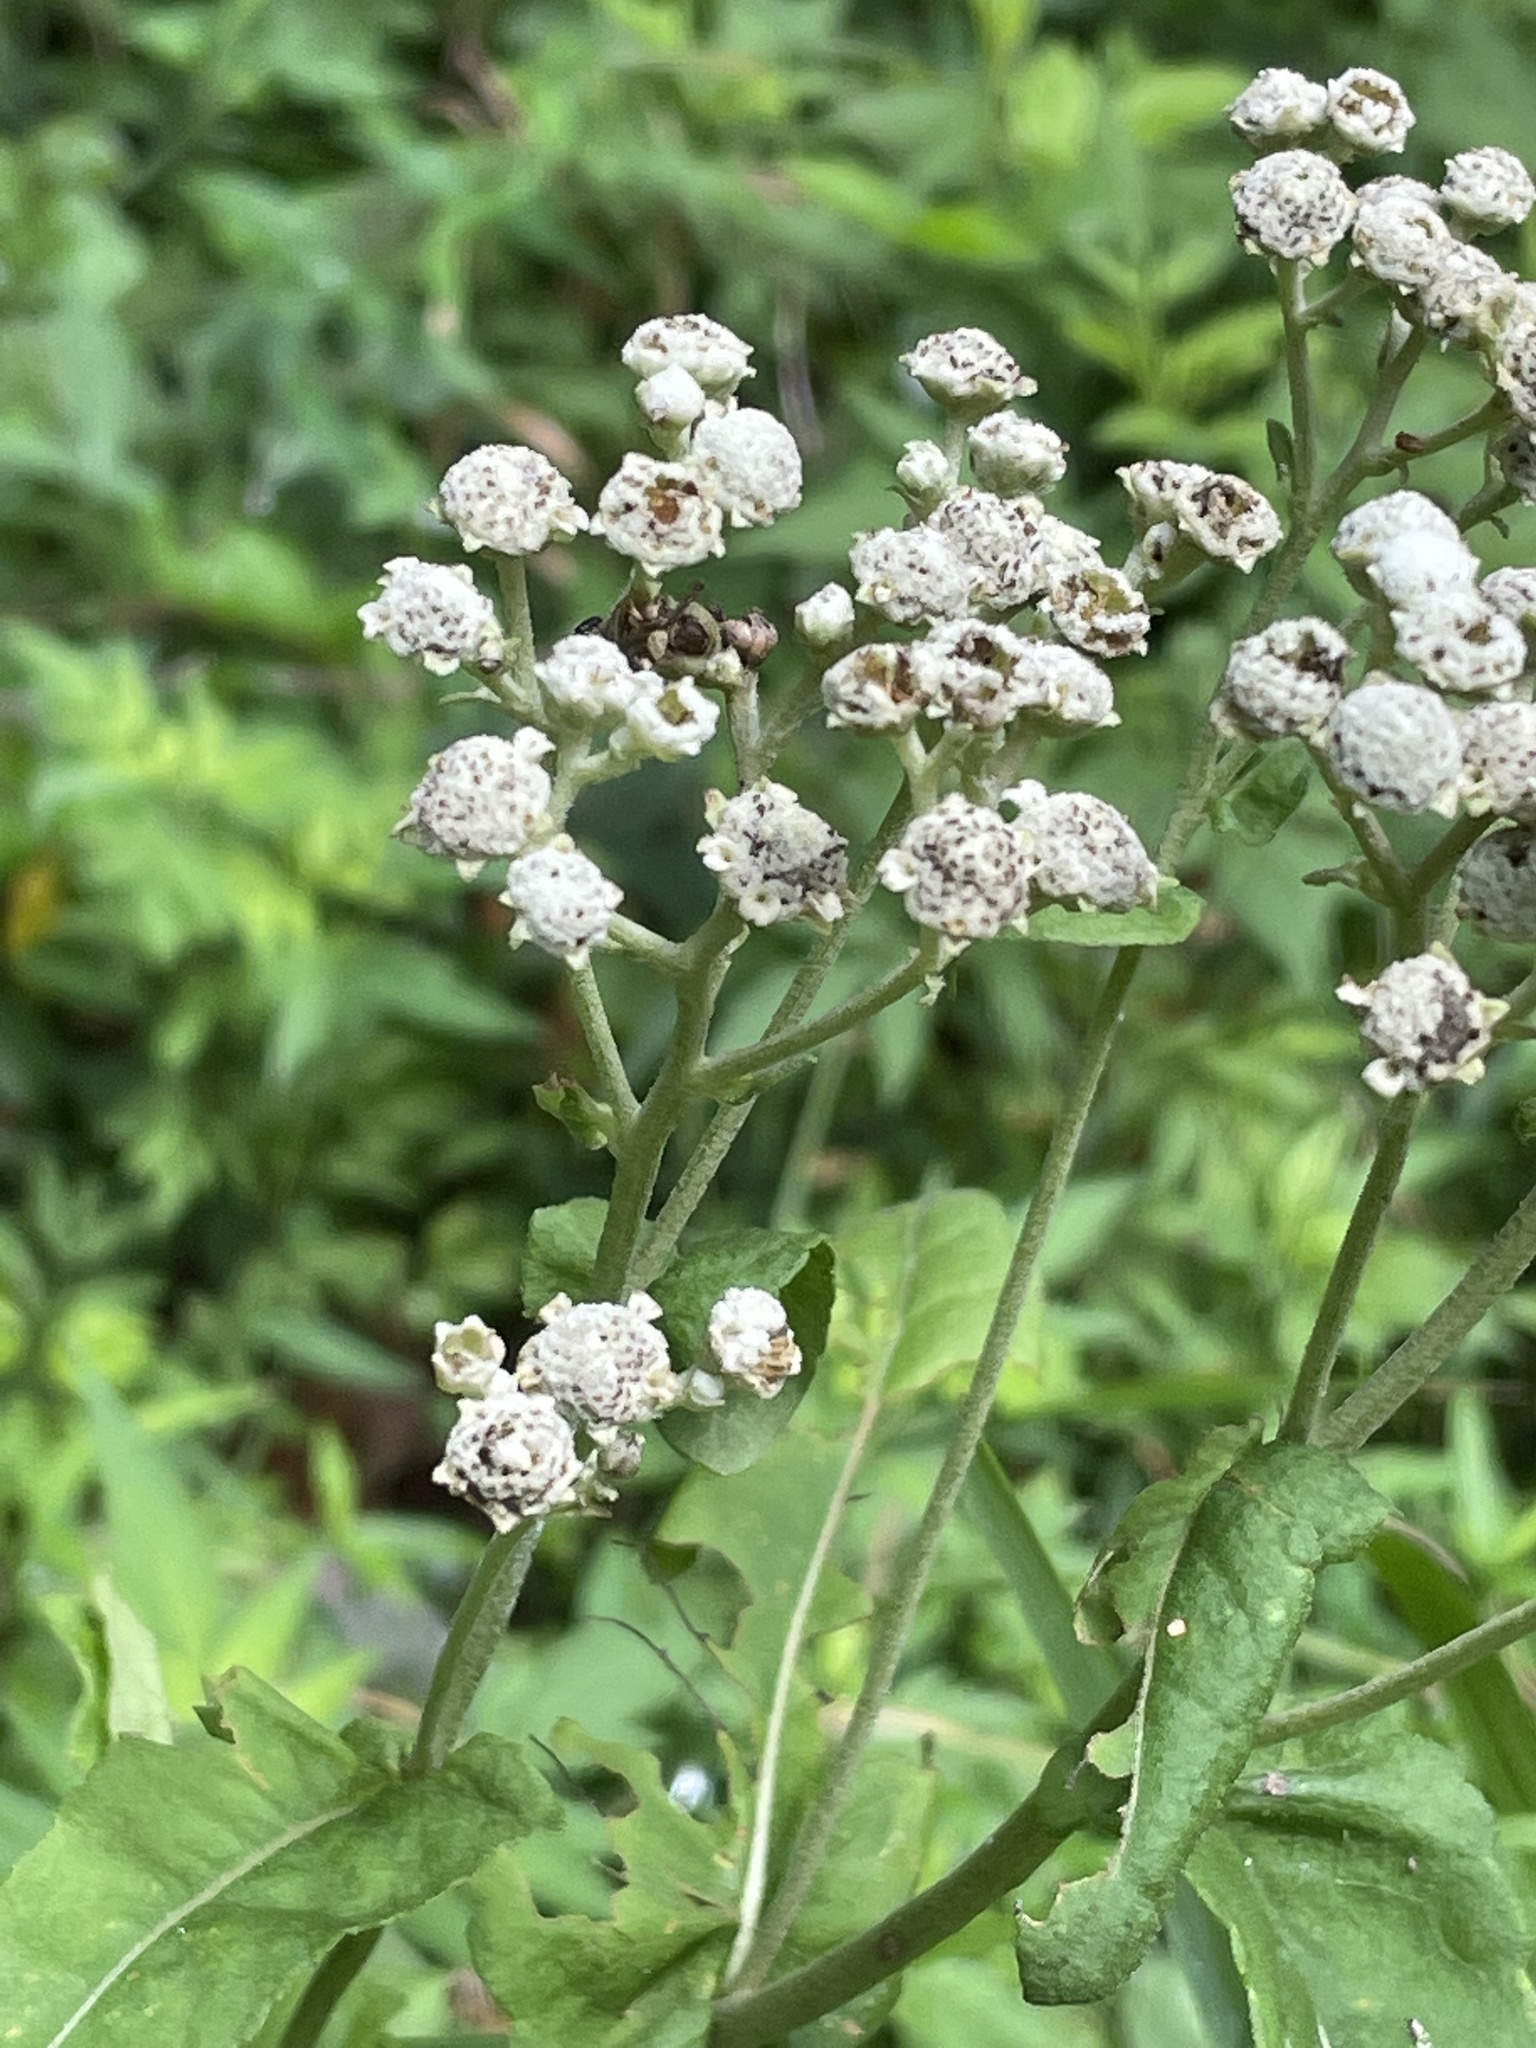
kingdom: Plantae
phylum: Tracheophyta
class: Magnoliopsida
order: Asterales
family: Asteraceae
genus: Parthenium
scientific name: Parthenium integrifolium
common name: American feverfew
